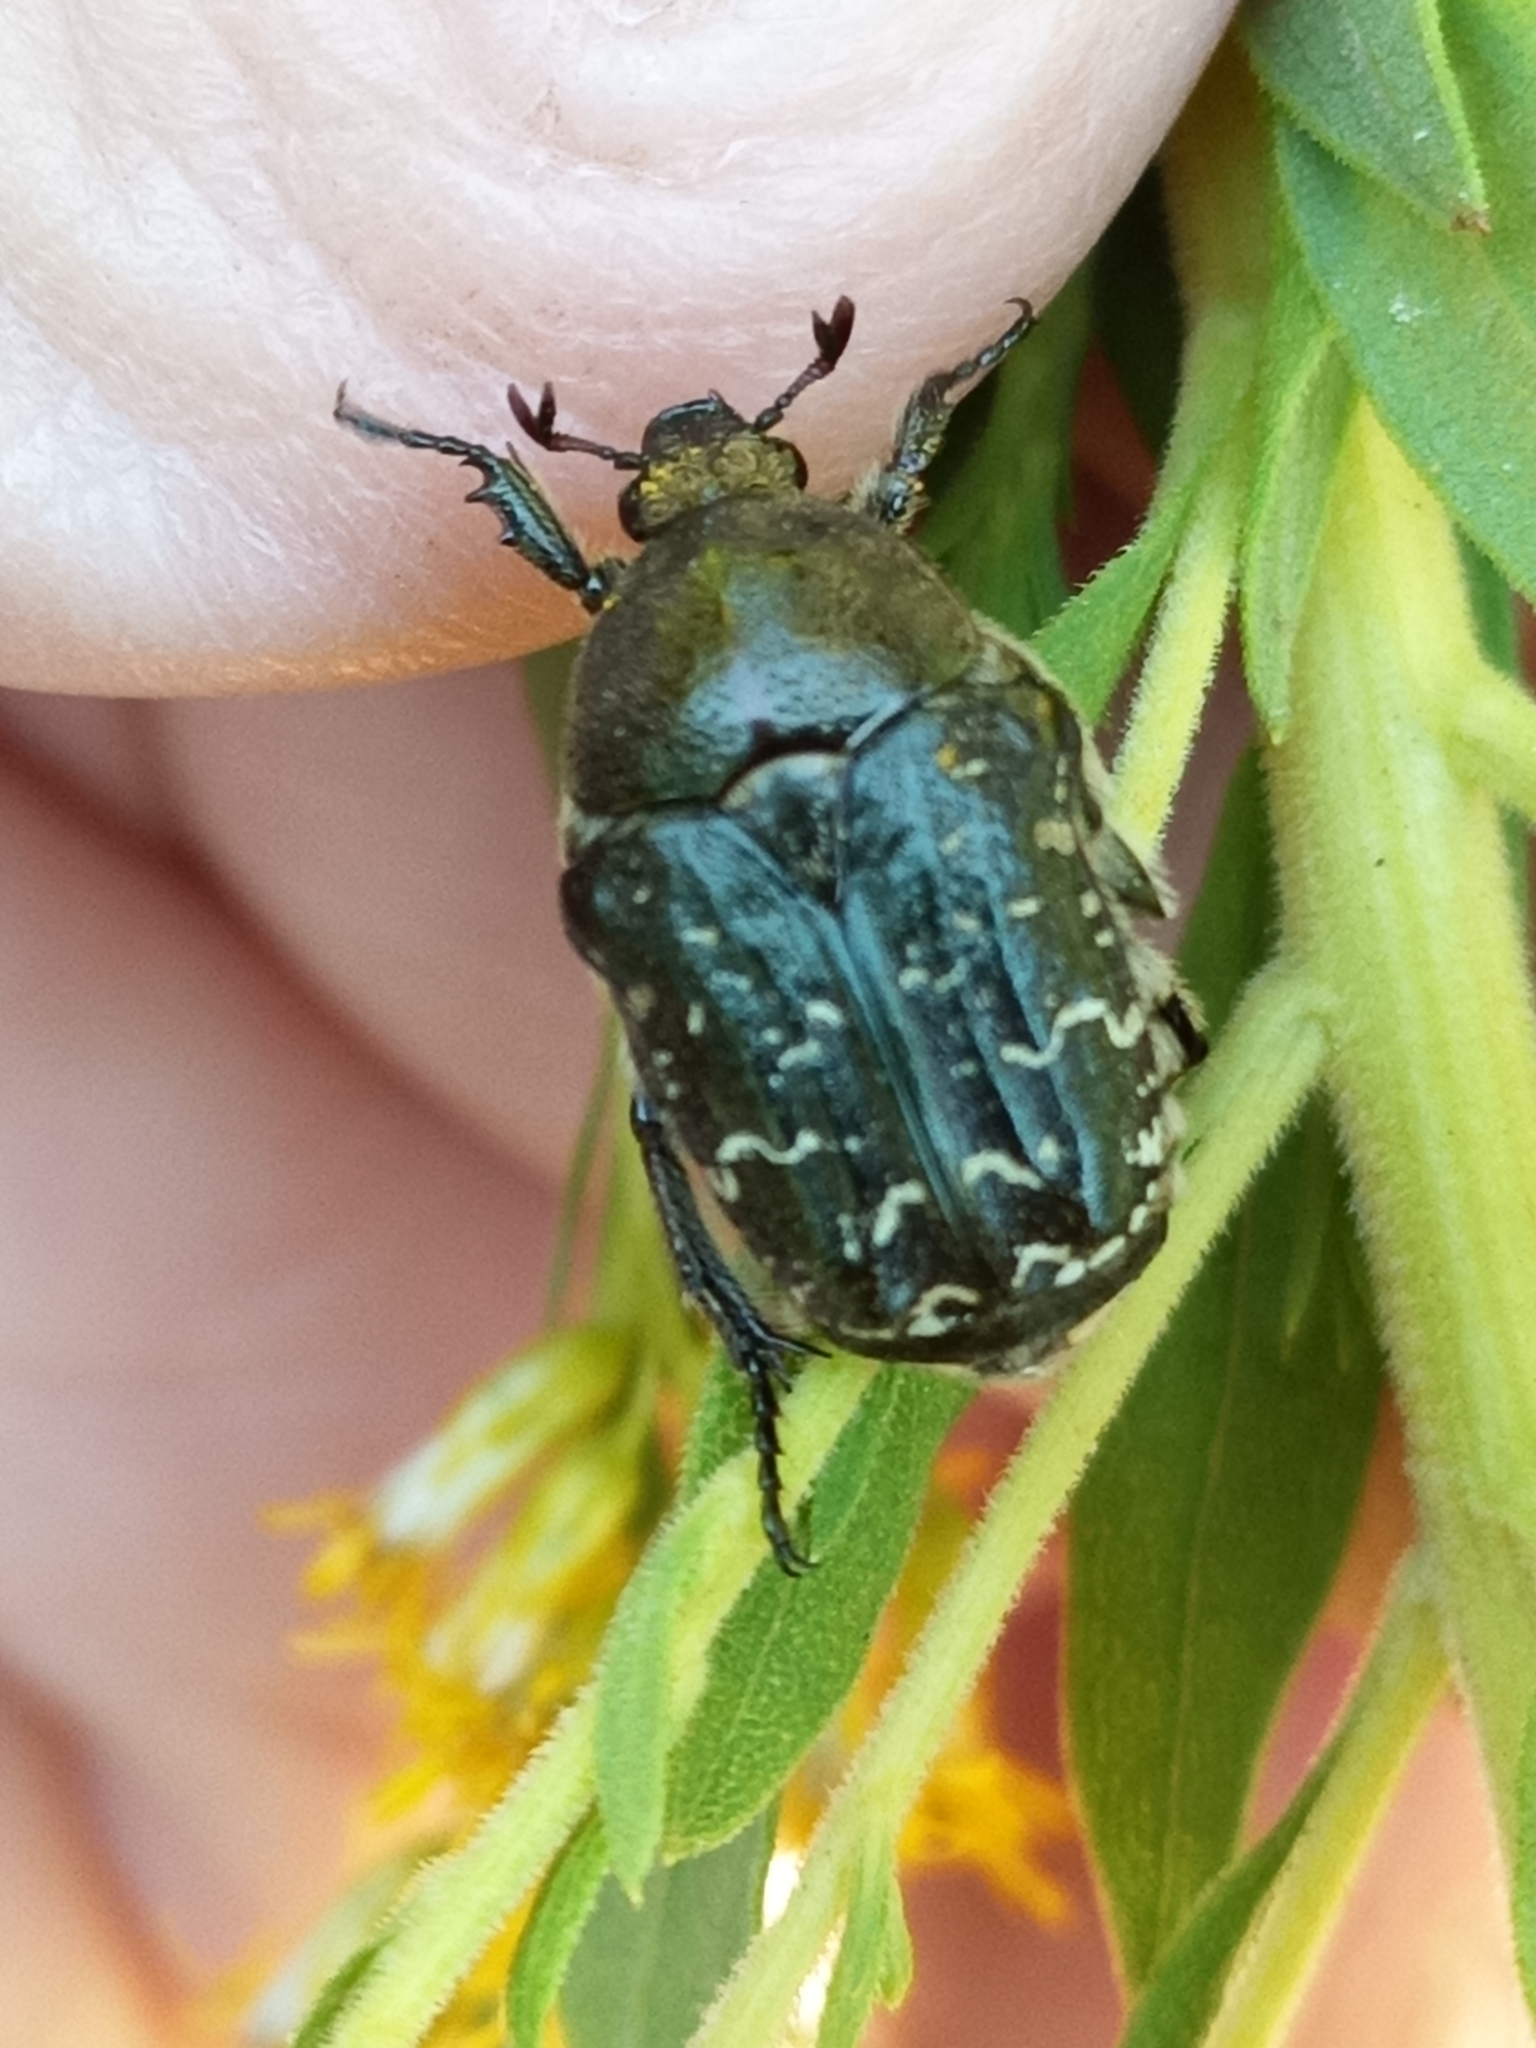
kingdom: Animalia
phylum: Arthropoda
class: Insecta
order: Coleoptera
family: Scarabaeidae
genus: Euphoria
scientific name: Euphoria sepulcralis
